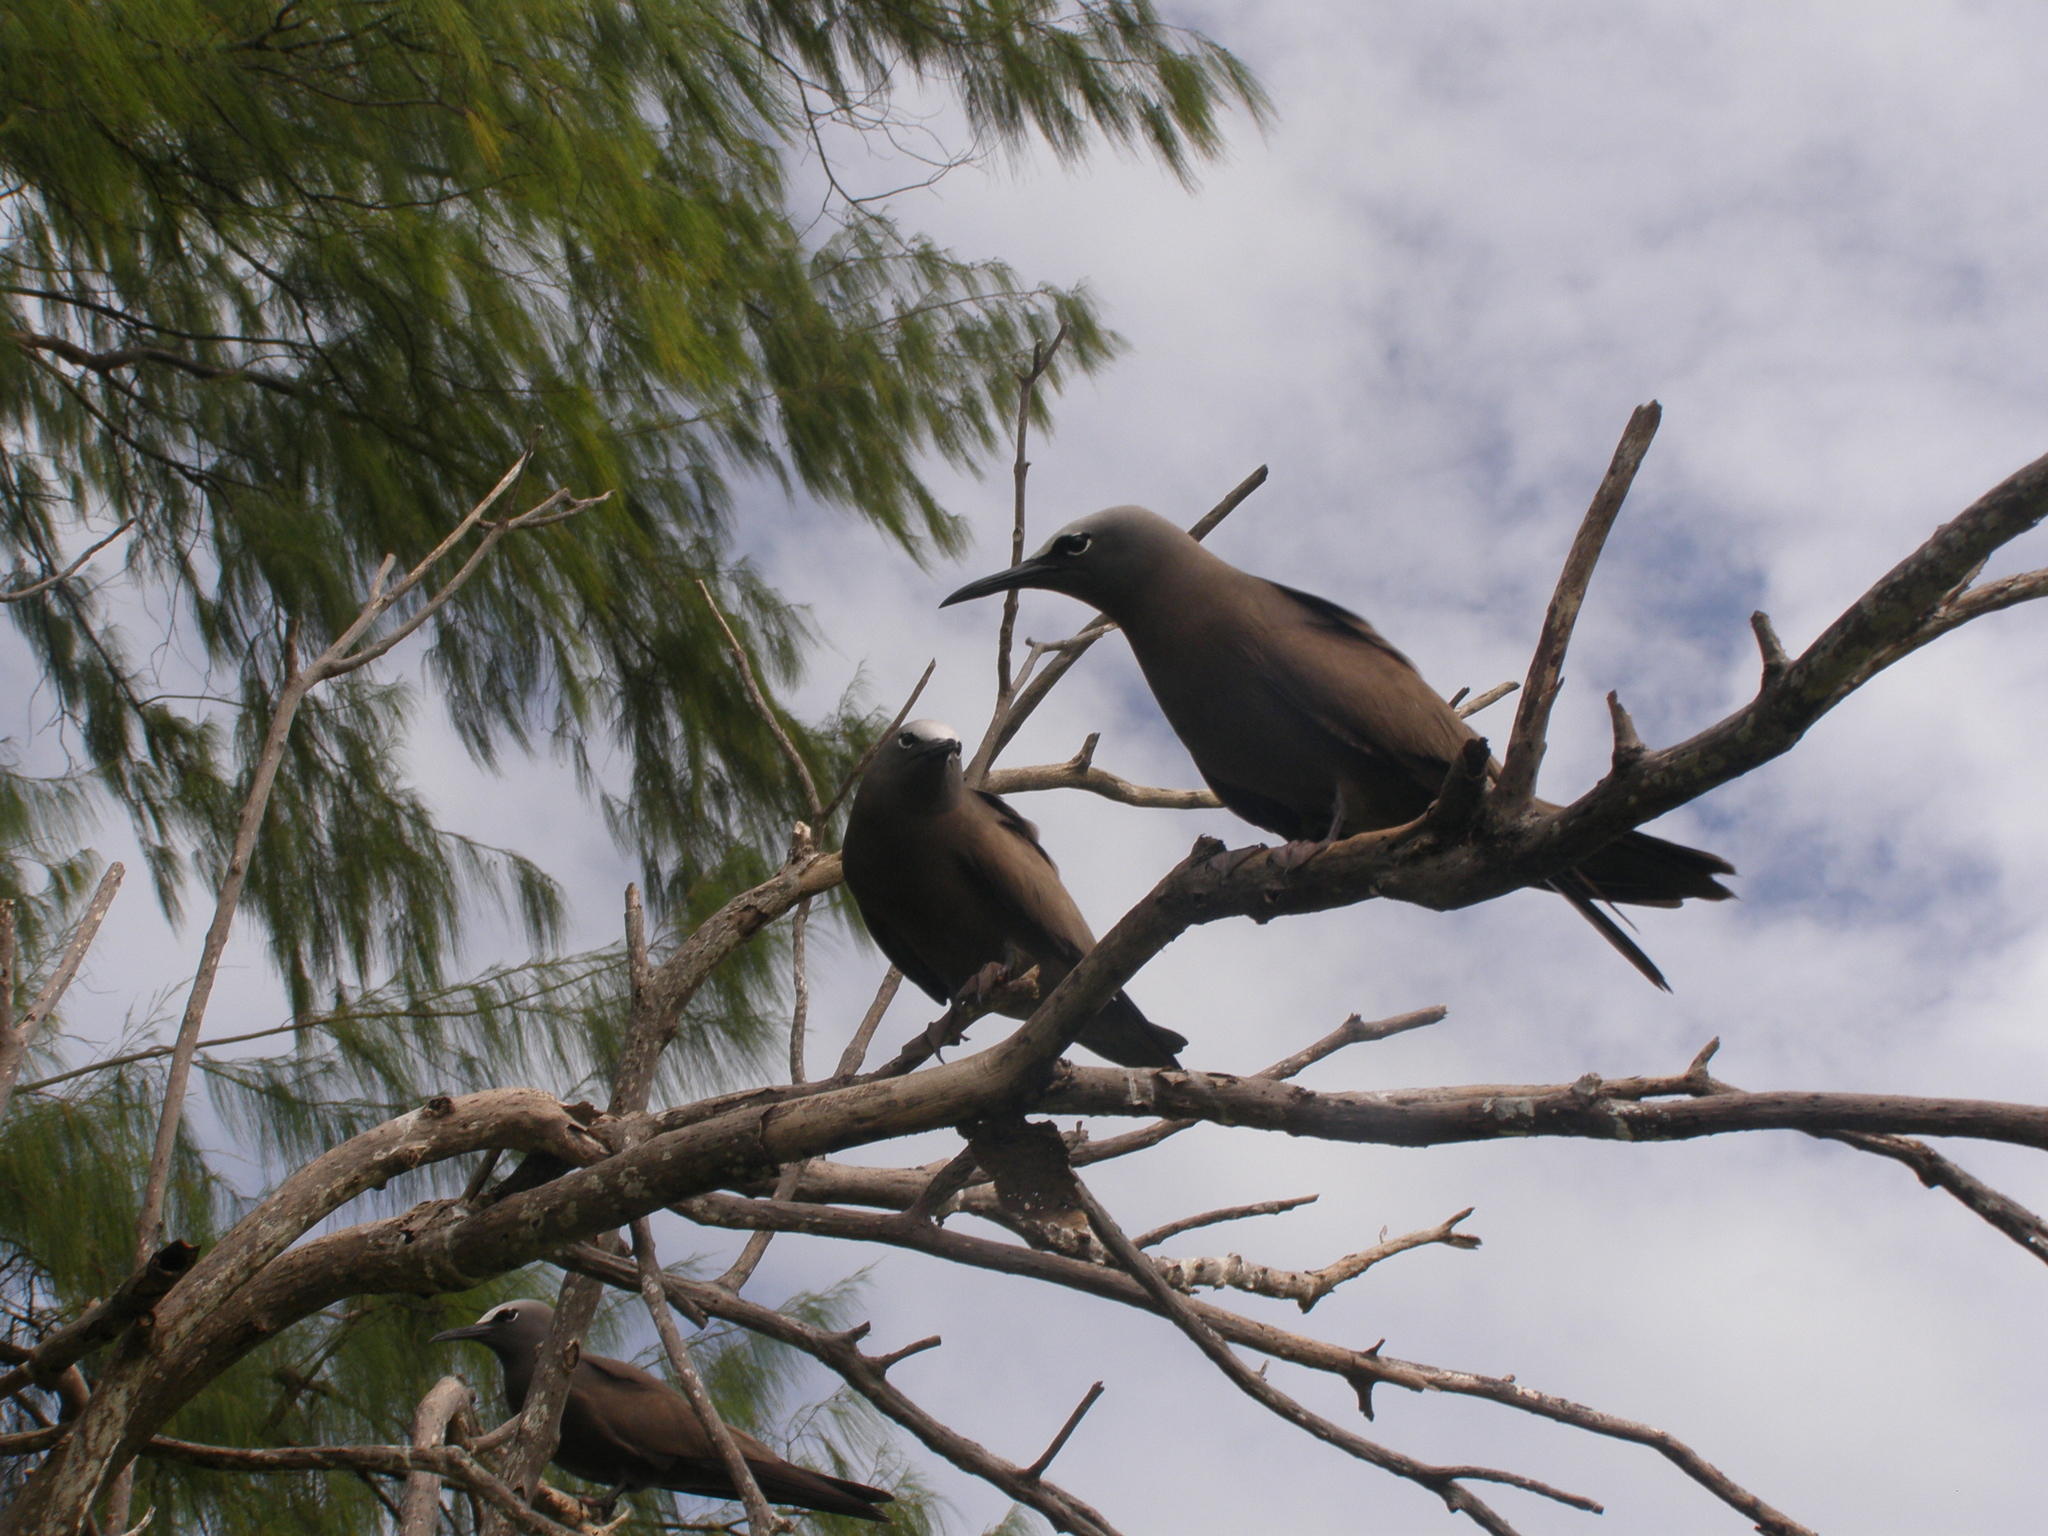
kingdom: Animalia
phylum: Chordata
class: Aves
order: Charadriiformes
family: Laridae
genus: Anous
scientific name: Anous stolidus
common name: Brown noddy
